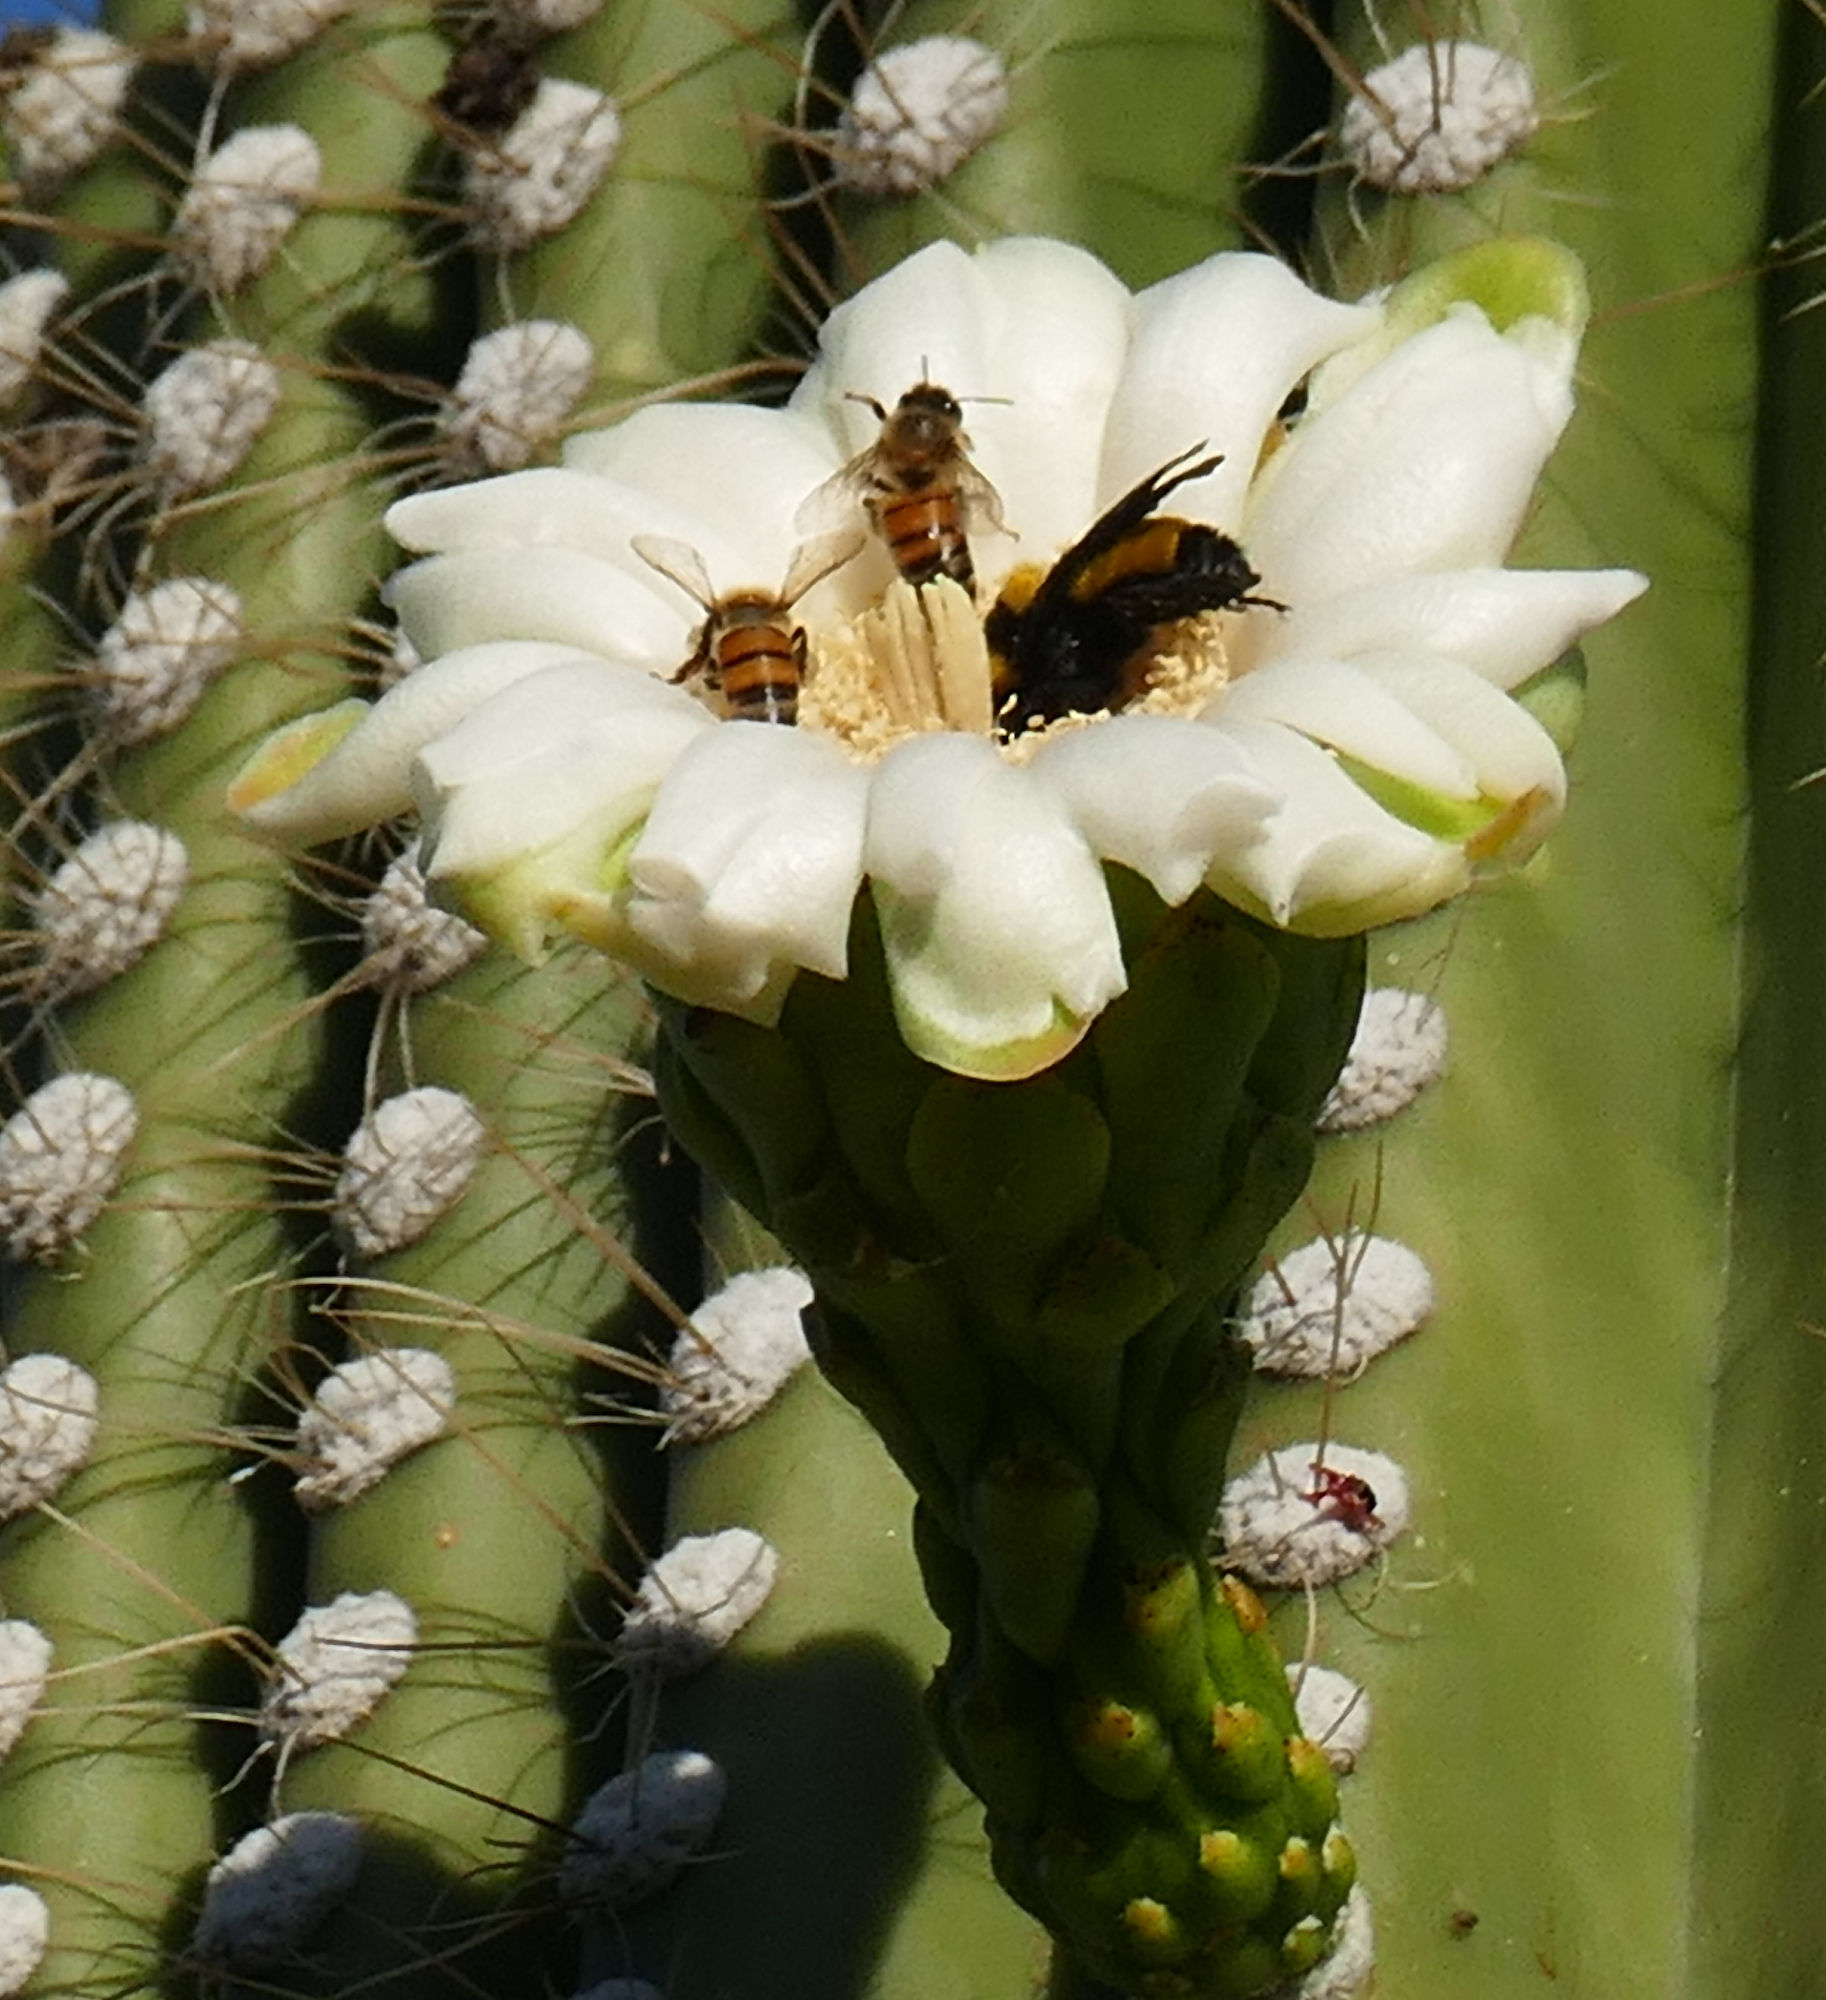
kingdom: Animalia
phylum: Arthropoda
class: Insecta
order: Hymenoptera
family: Apidae
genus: Bombus
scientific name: Bombus sonorus
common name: Sonoran bumble bee
